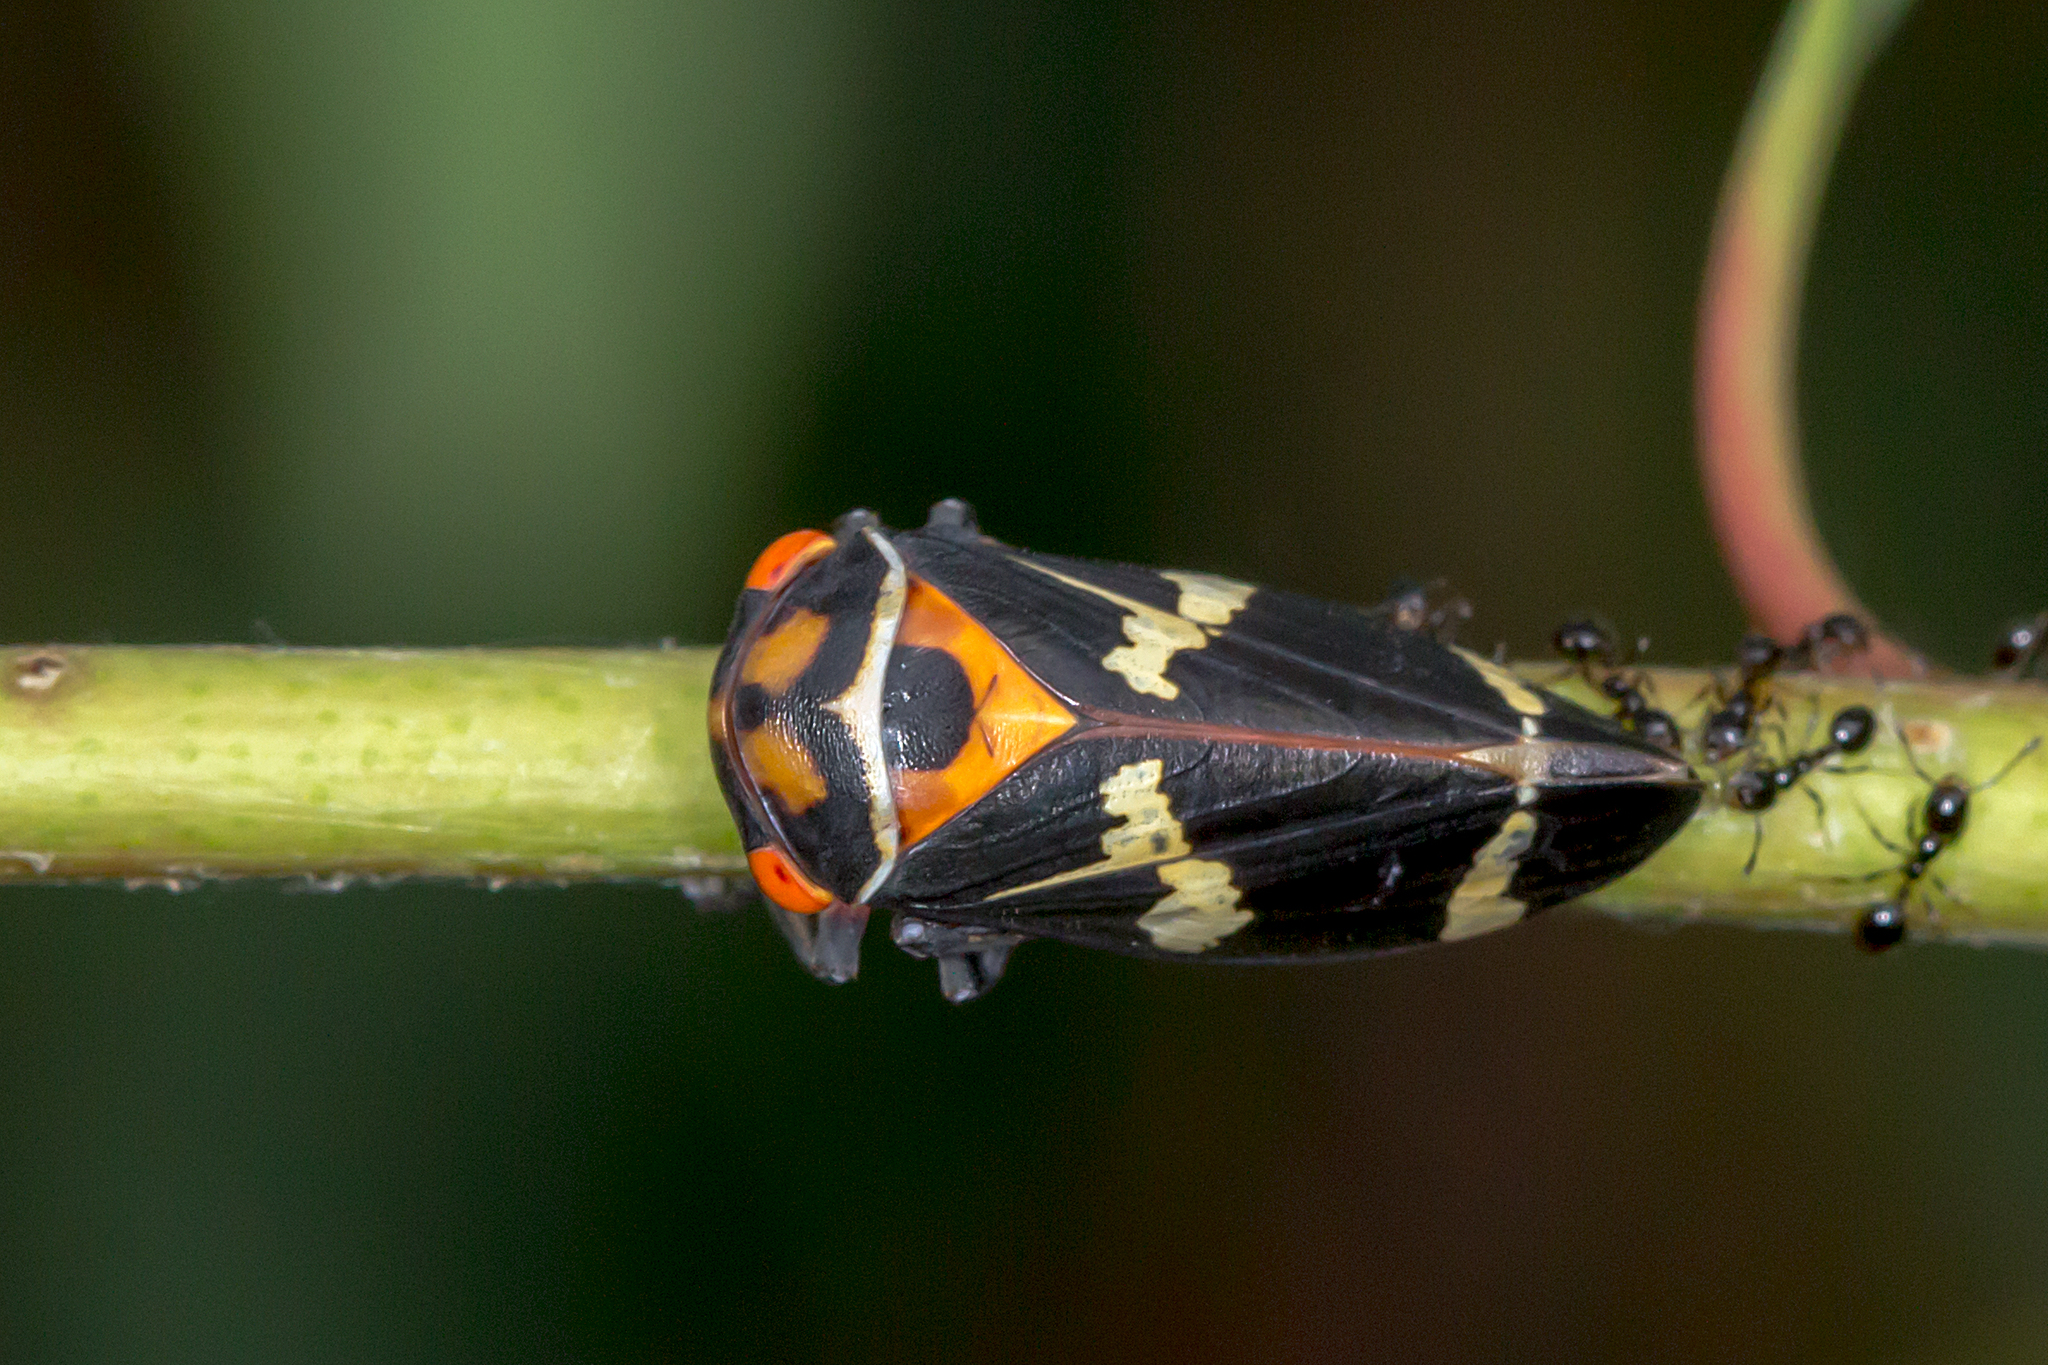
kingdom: Animalia
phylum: Arthropoda
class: Insecta
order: Hemiptera
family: Cicadellidae
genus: Eurymeloides
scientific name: Eurymeloides pulchra
